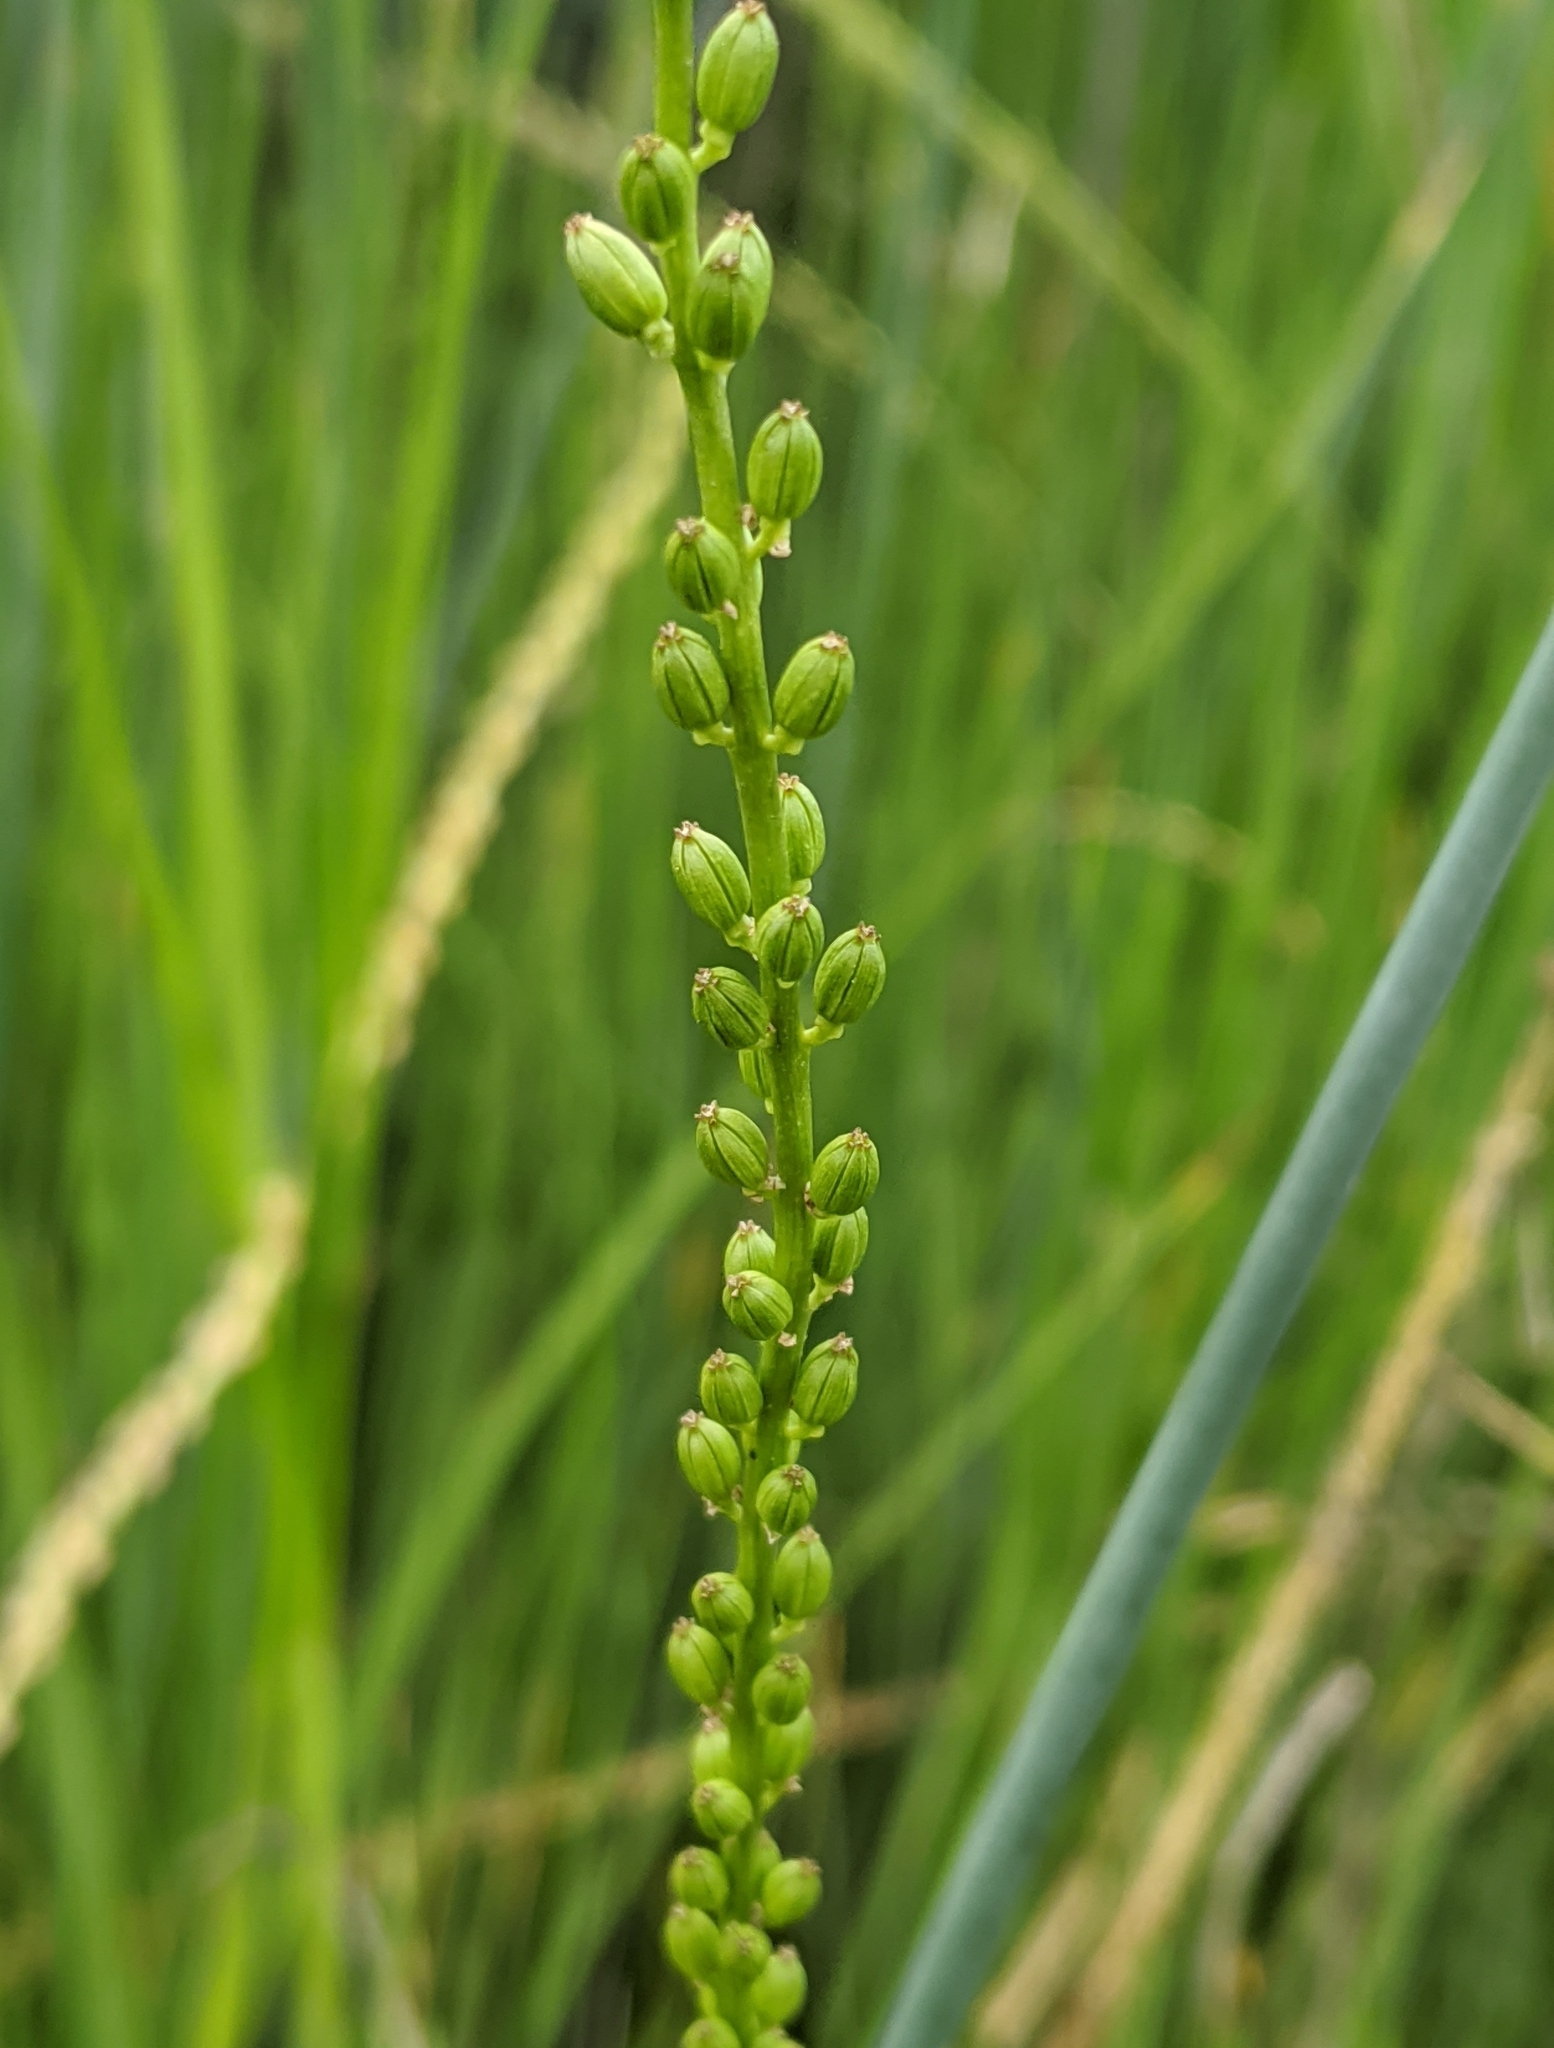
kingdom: Plantae
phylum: Tracheophyta
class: Liliopsida
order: Alismatales
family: Juncaginaceae
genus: Triglochin
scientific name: Triglochin maritima
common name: Sea arrowgrass
